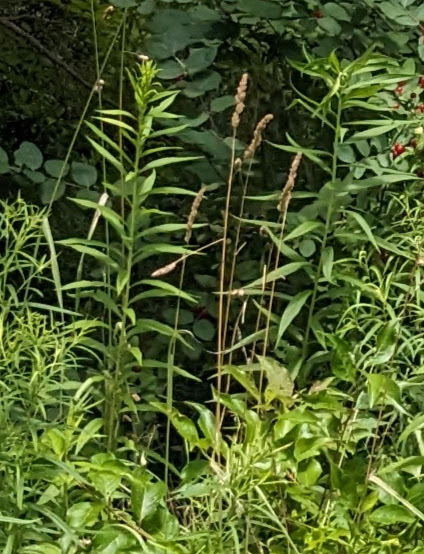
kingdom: Plantae
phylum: Tracheophyta
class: Liliopsida
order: Poales
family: Poaceae
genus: Dactylis
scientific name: Dactylis glomerata
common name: Orchardgrass
